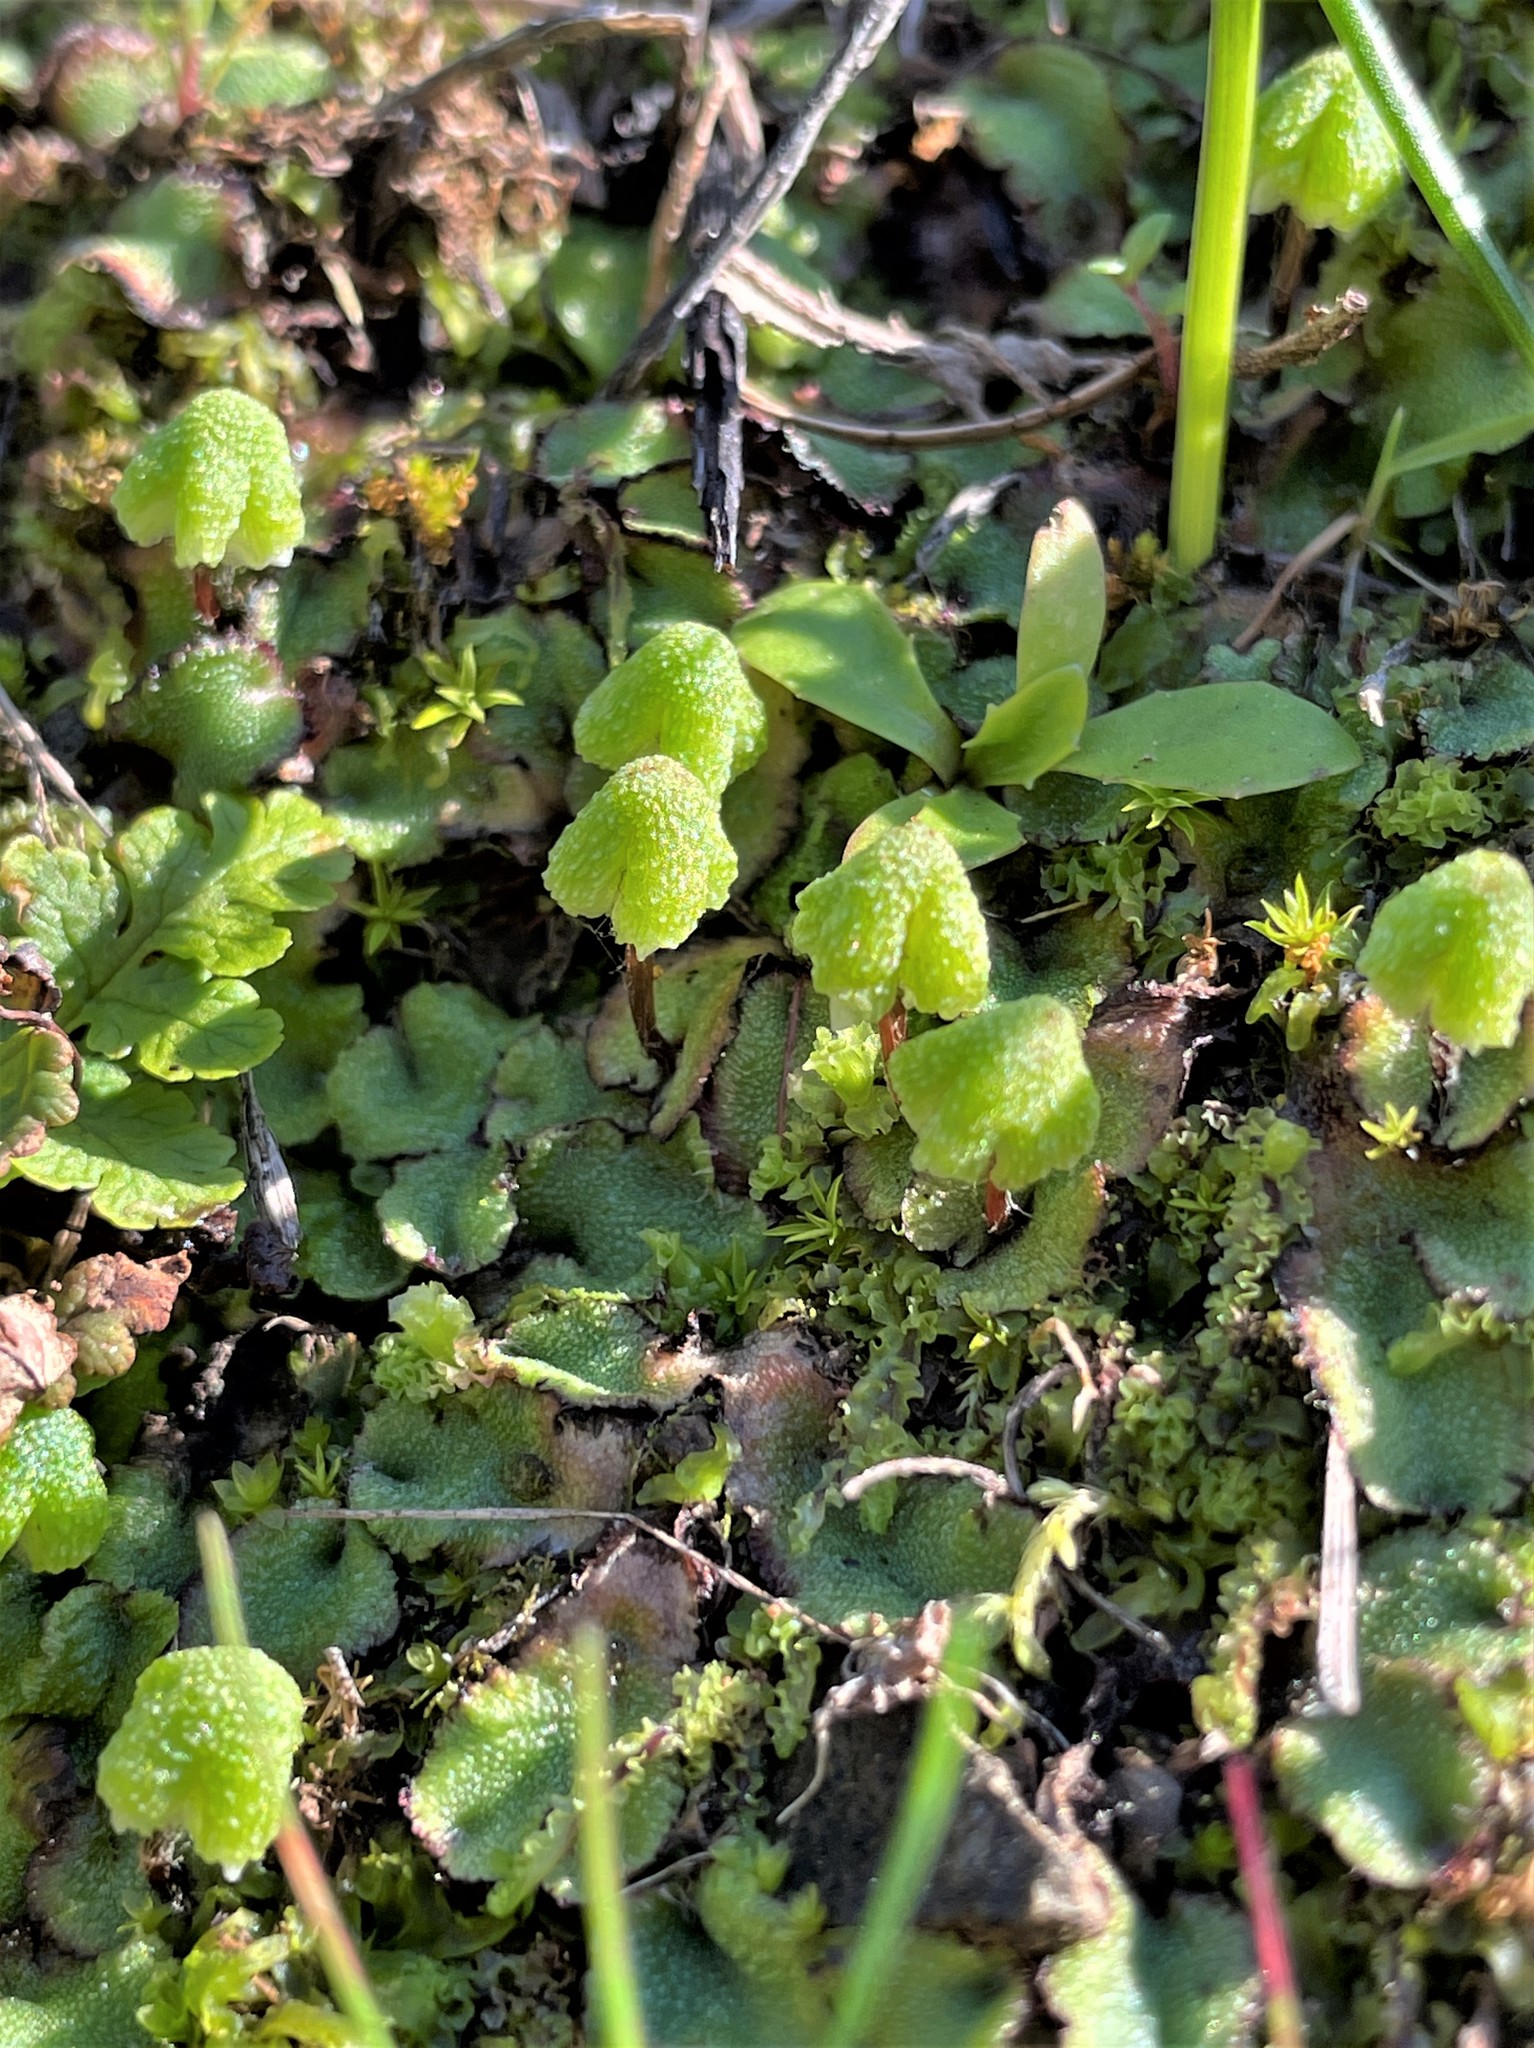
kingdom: Plantae
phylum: Marchantiophyta
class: Marchantiopsida
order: Marchantiales
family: Aytoniaceae
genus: Asterella
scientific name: Asterella californica
